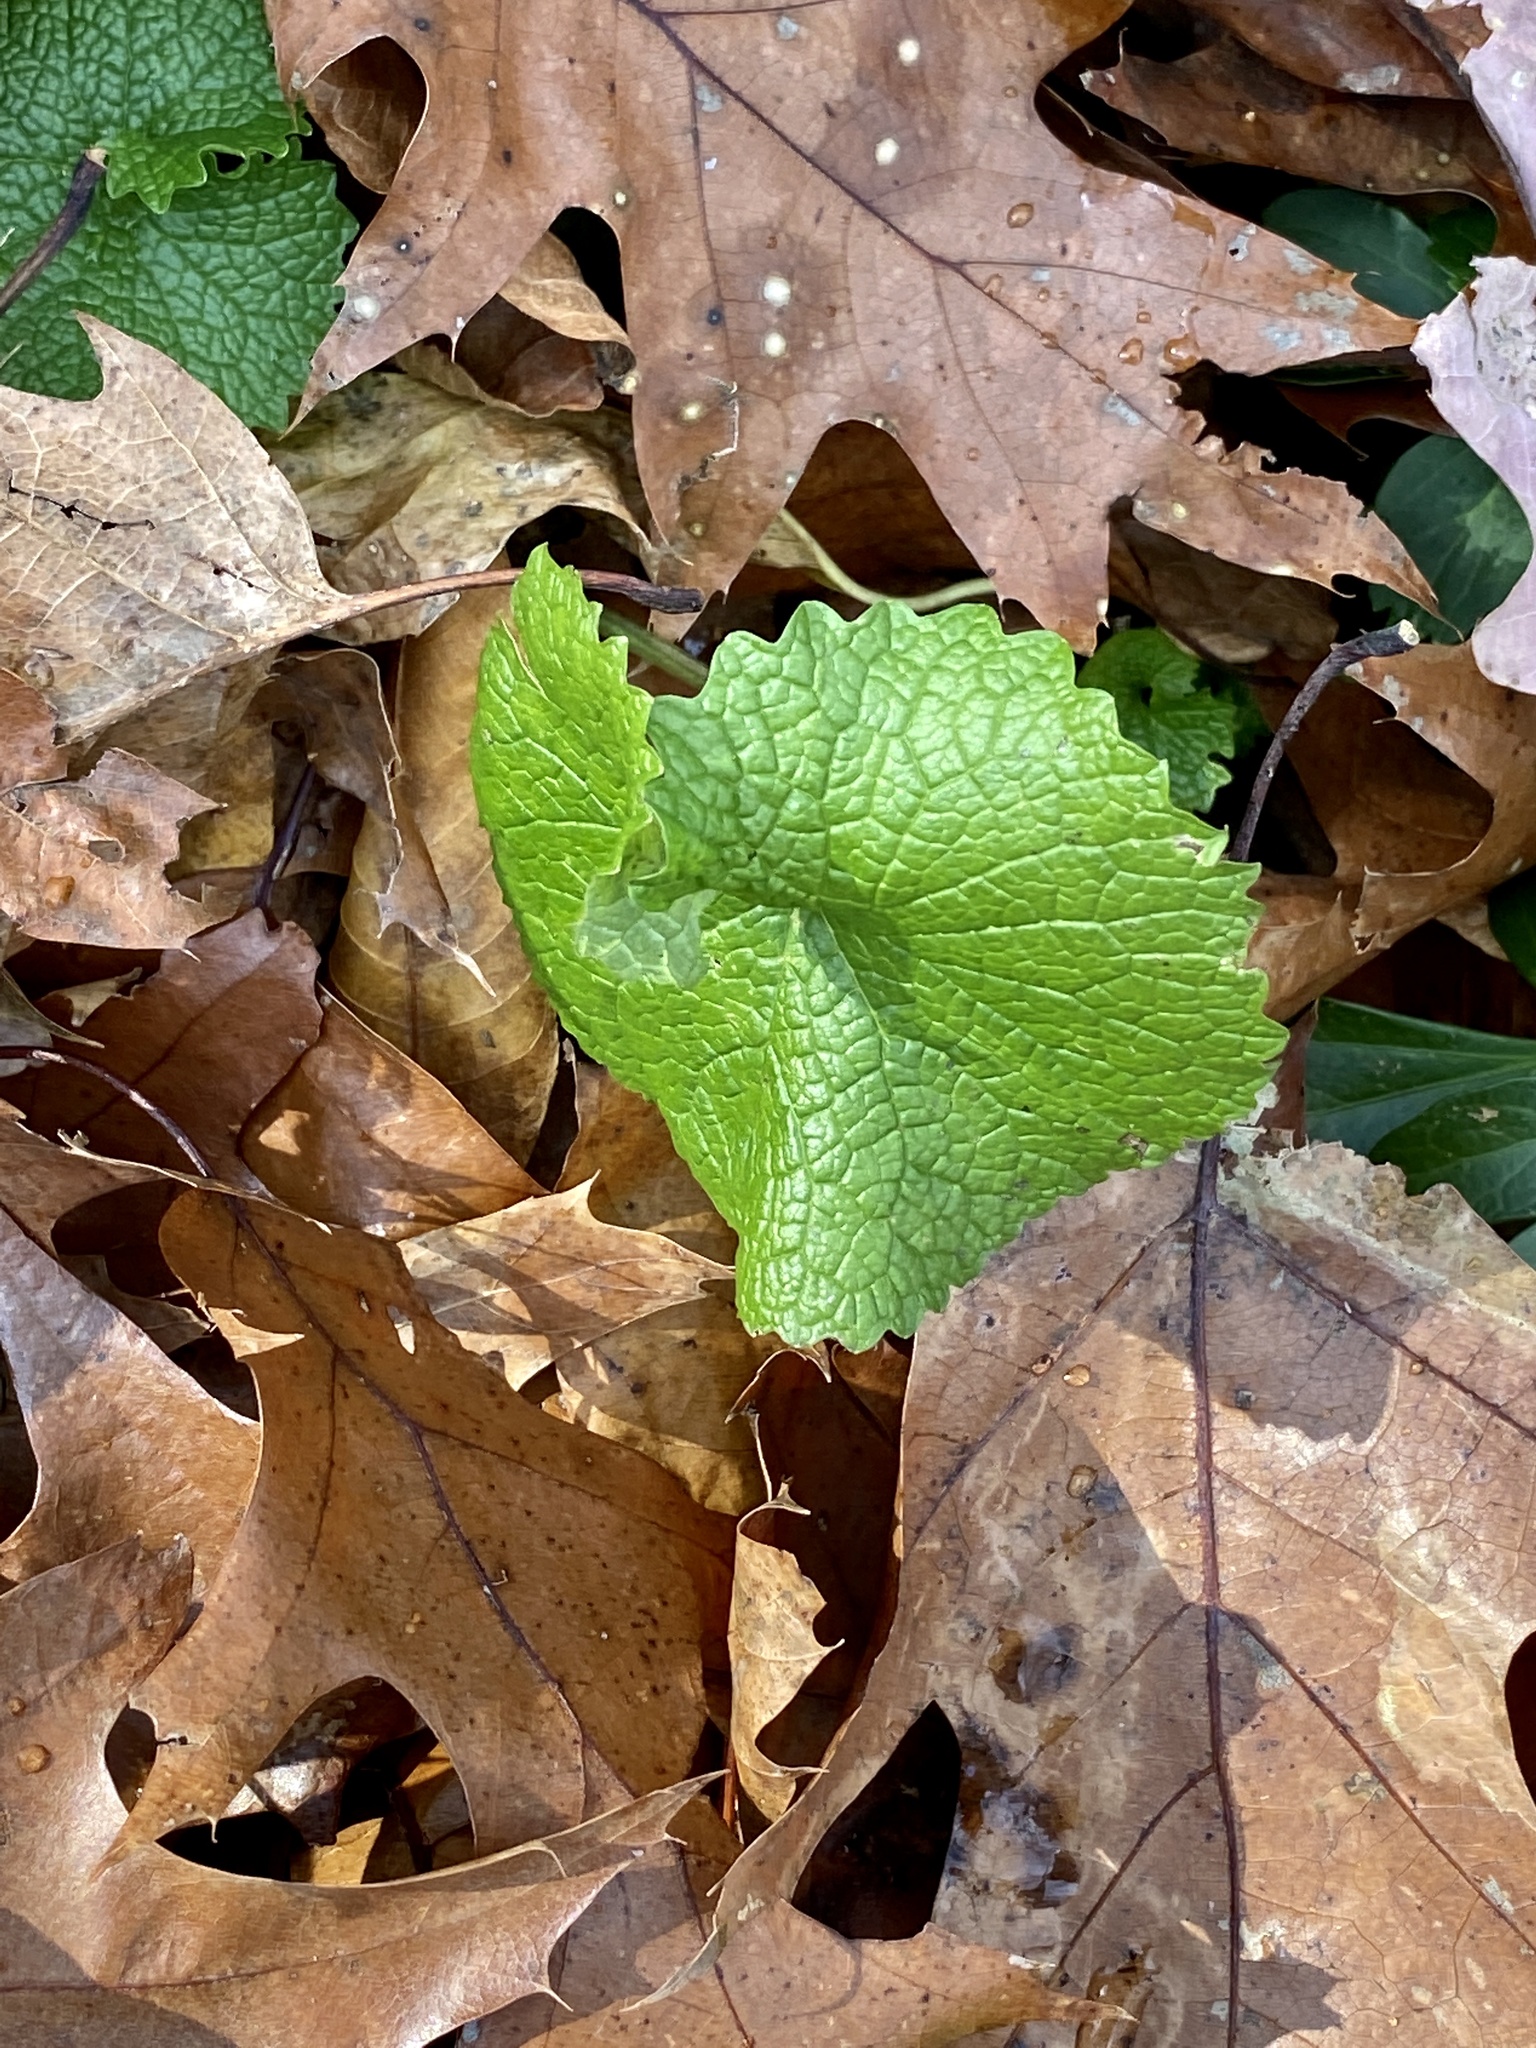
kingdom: Plantae
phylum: Tracheophyta
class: Magnoliopsida
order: Brassicales
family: Brassicaceae
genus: Alliaria
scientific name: Alliaria petiolata
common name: Garlic mustard
